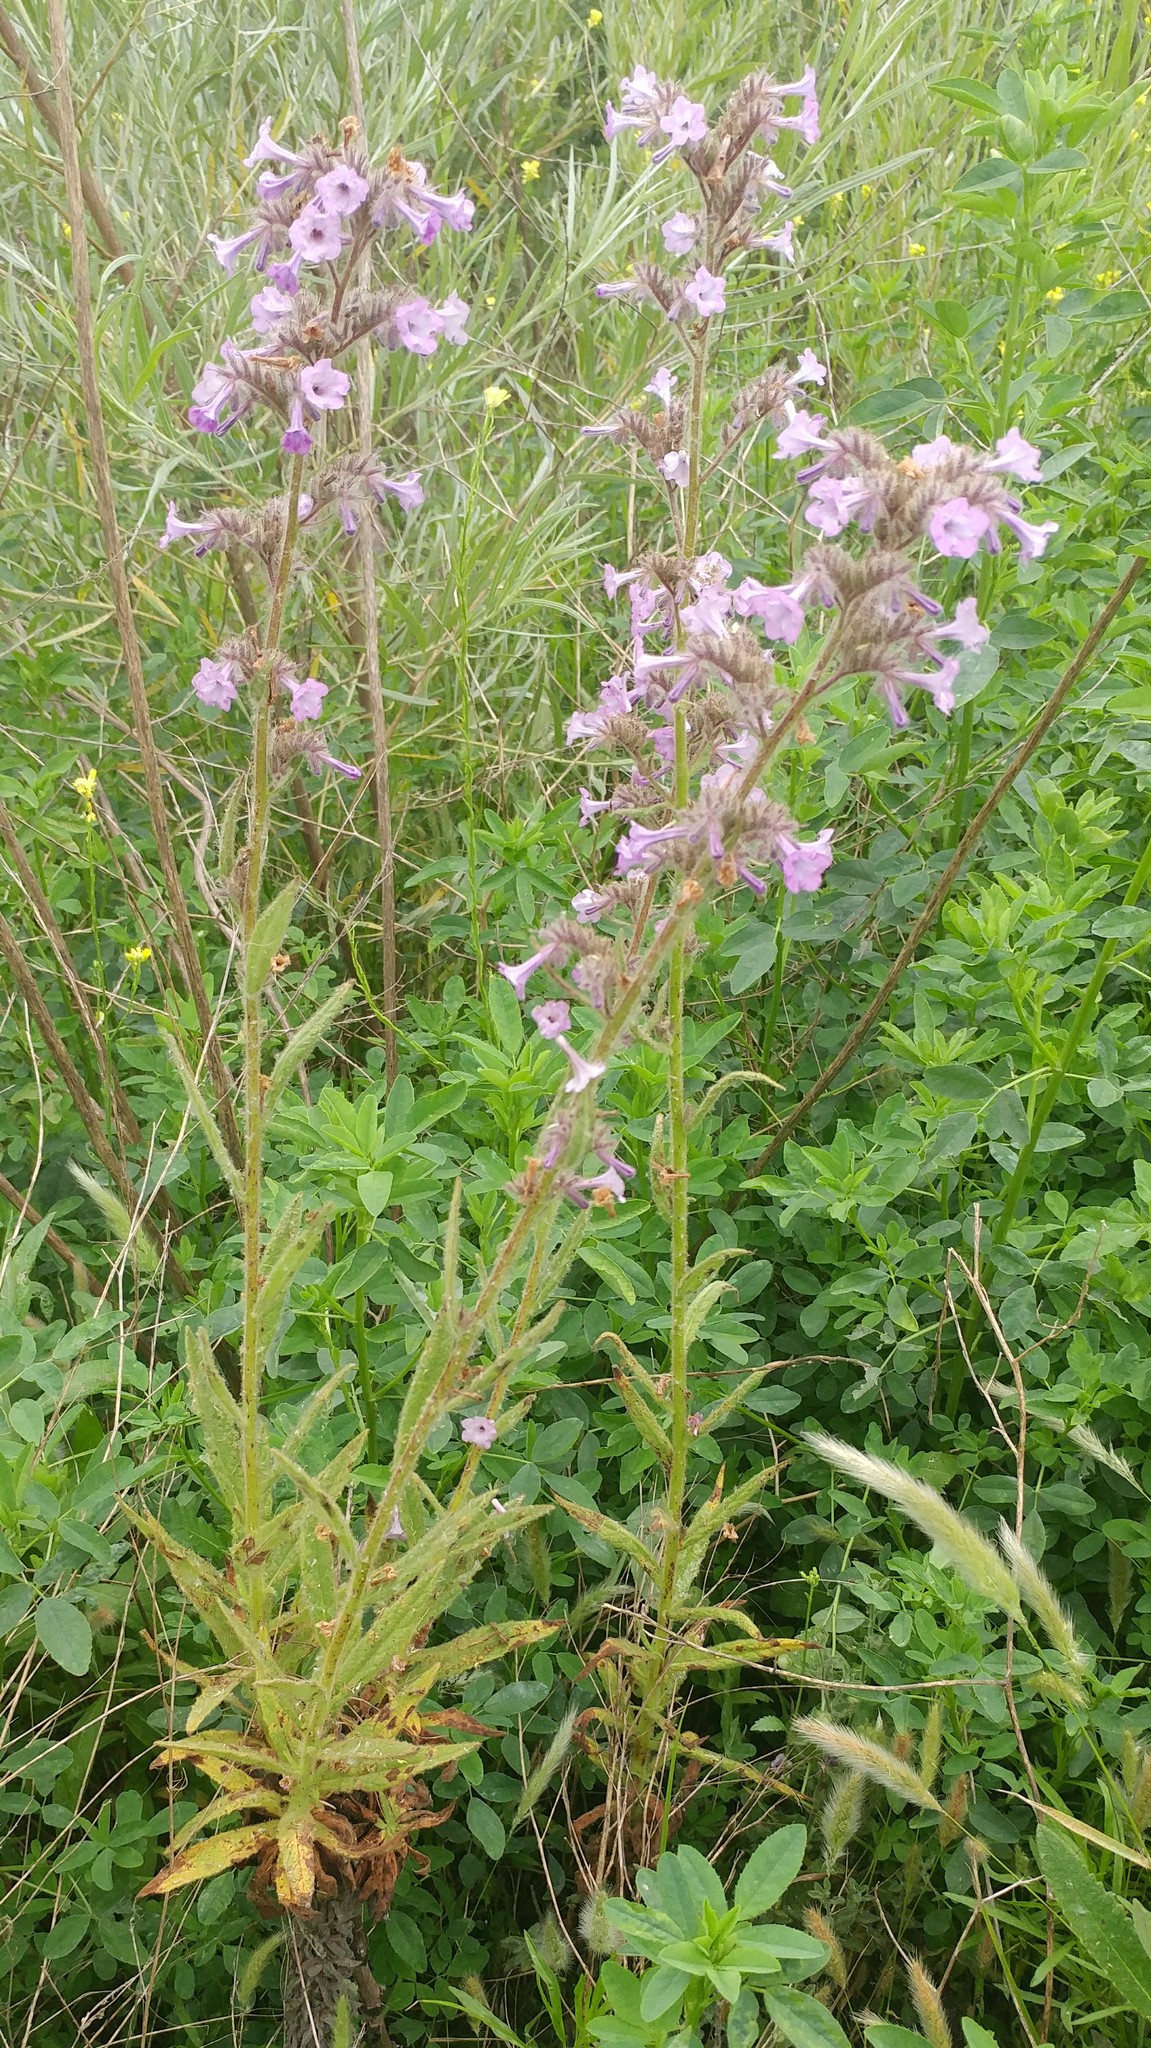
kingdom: Plantae
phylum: Tracheophyta
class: Magnoliopsida
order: Boraginales
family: Namaceae
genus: Turricula
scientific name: Turricula parryi
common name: Poodle-dog-bush
